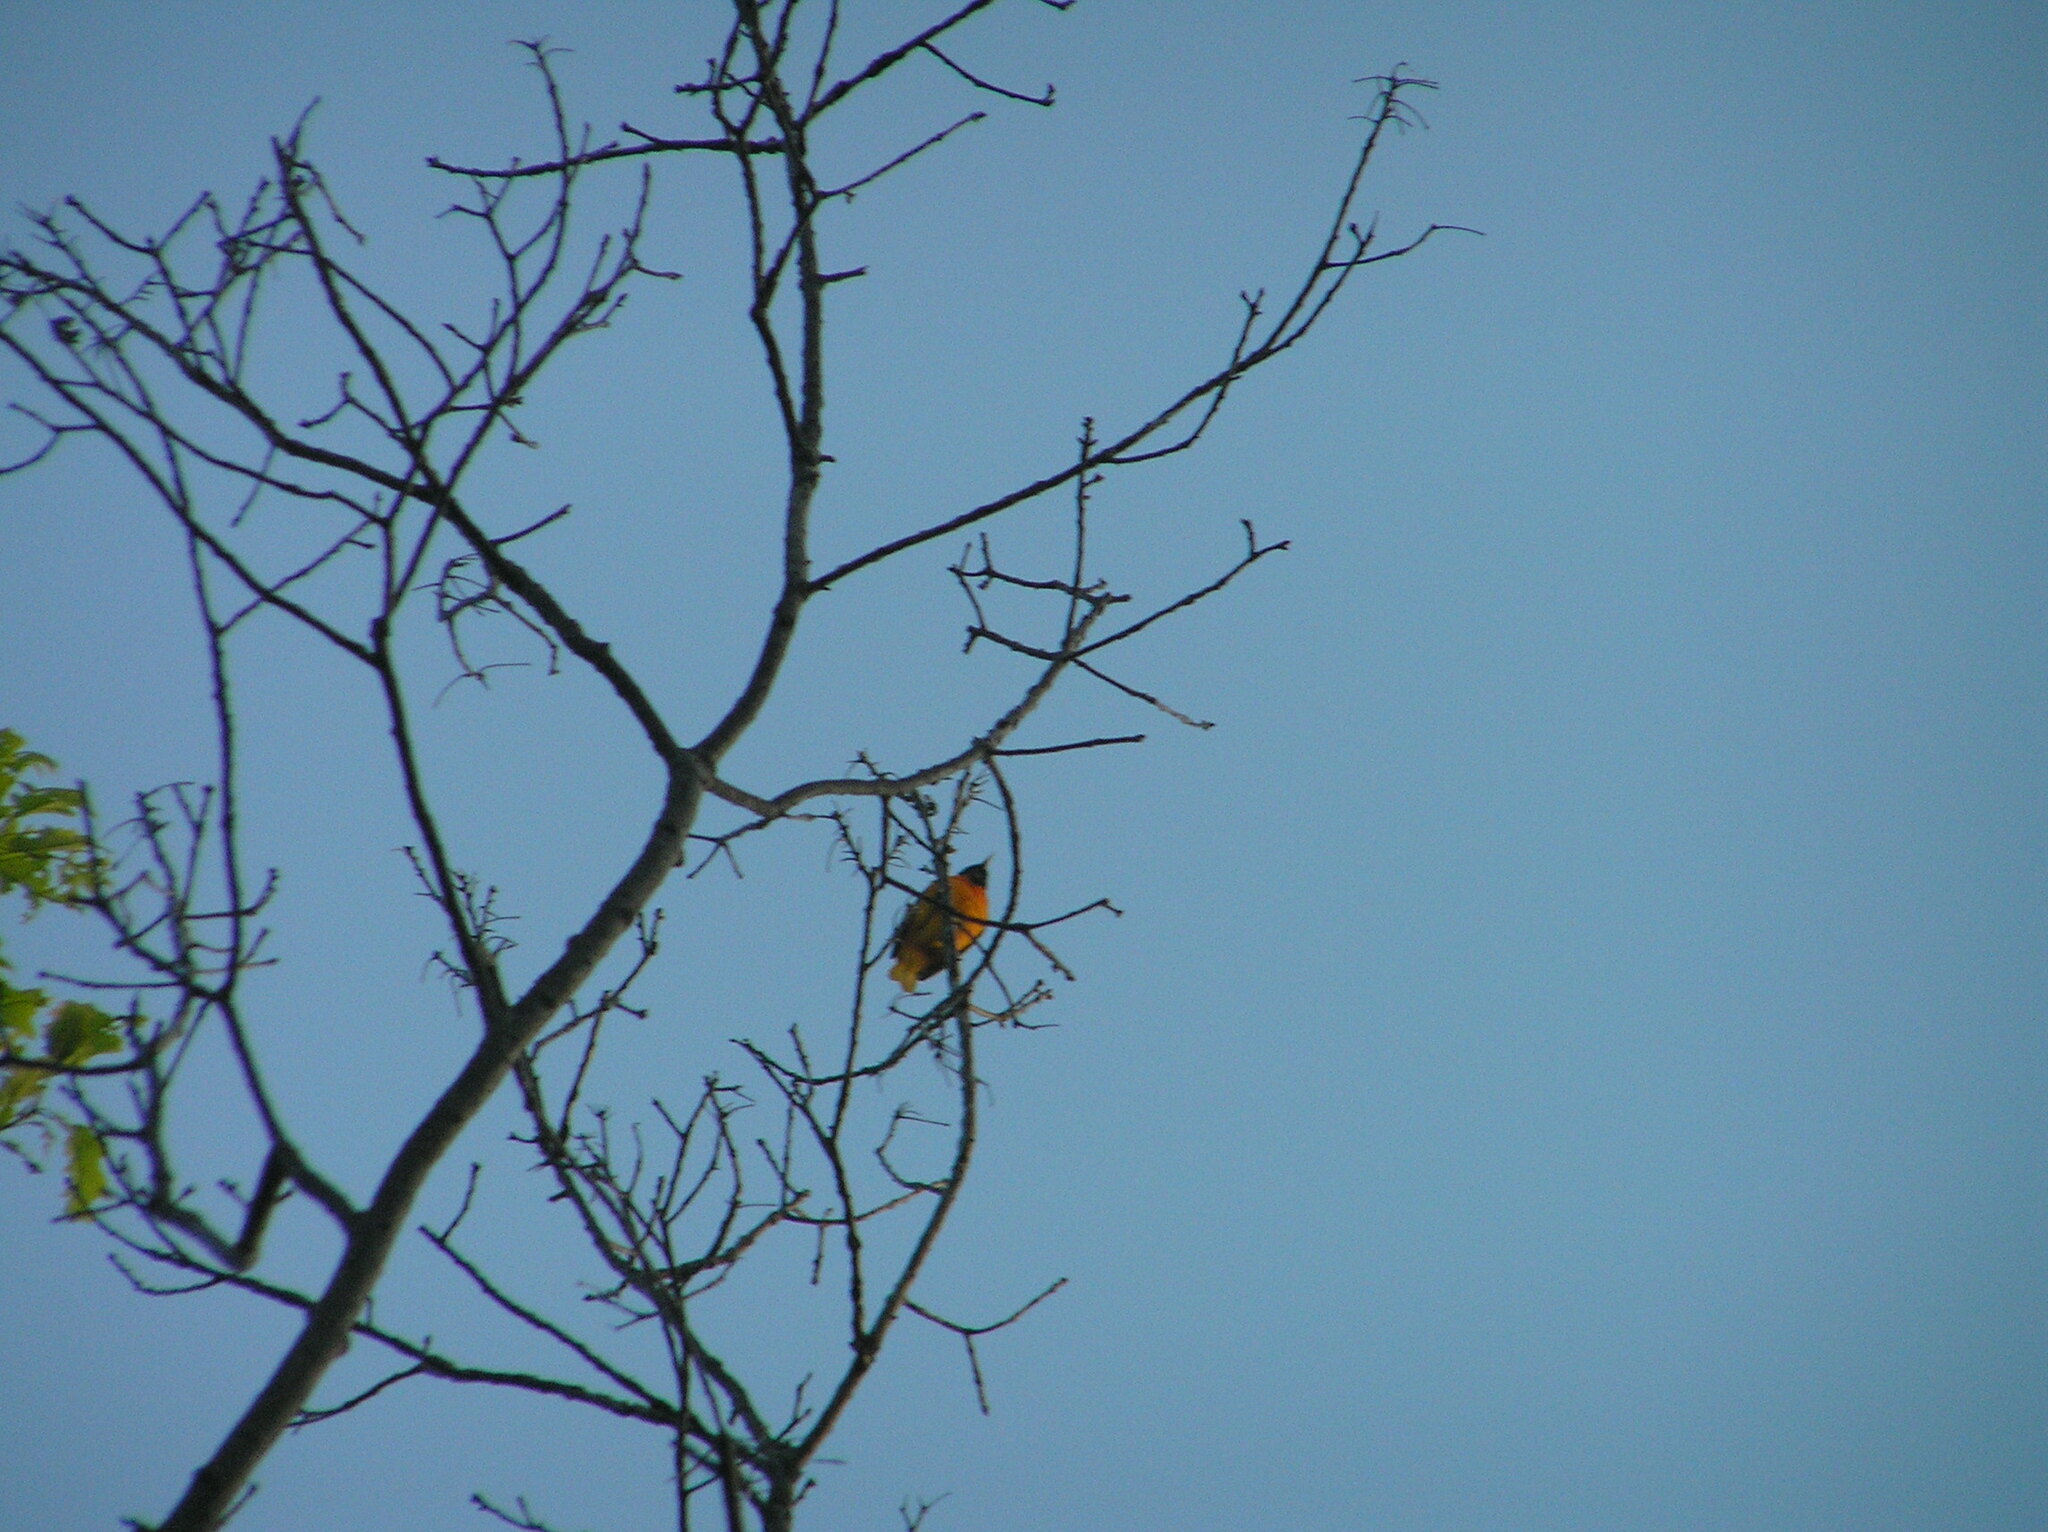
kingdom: Animalia
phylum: Chordata
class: Aves
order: Passeriformes
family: Icteridae
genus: Icterus
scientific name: Icterus galbula
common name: Baltimore oriole
